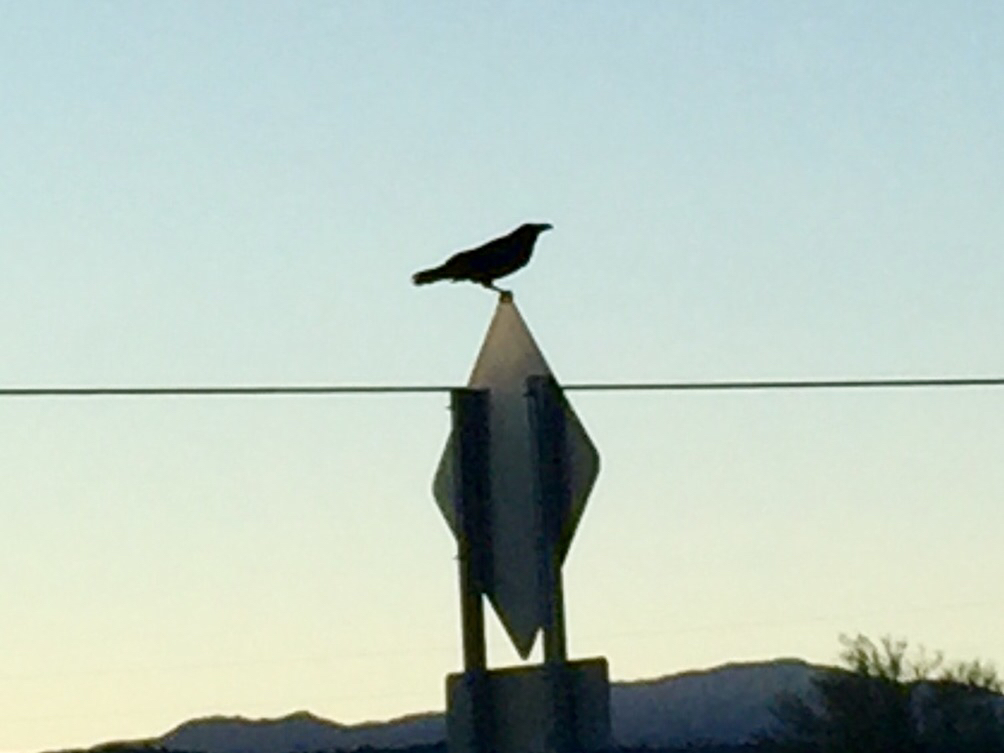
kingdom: Animalia
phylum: Chordata
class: Aves
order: Passeriformes
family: Corvidae
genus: Corvus
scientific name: Corvus corax
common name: Common raven
